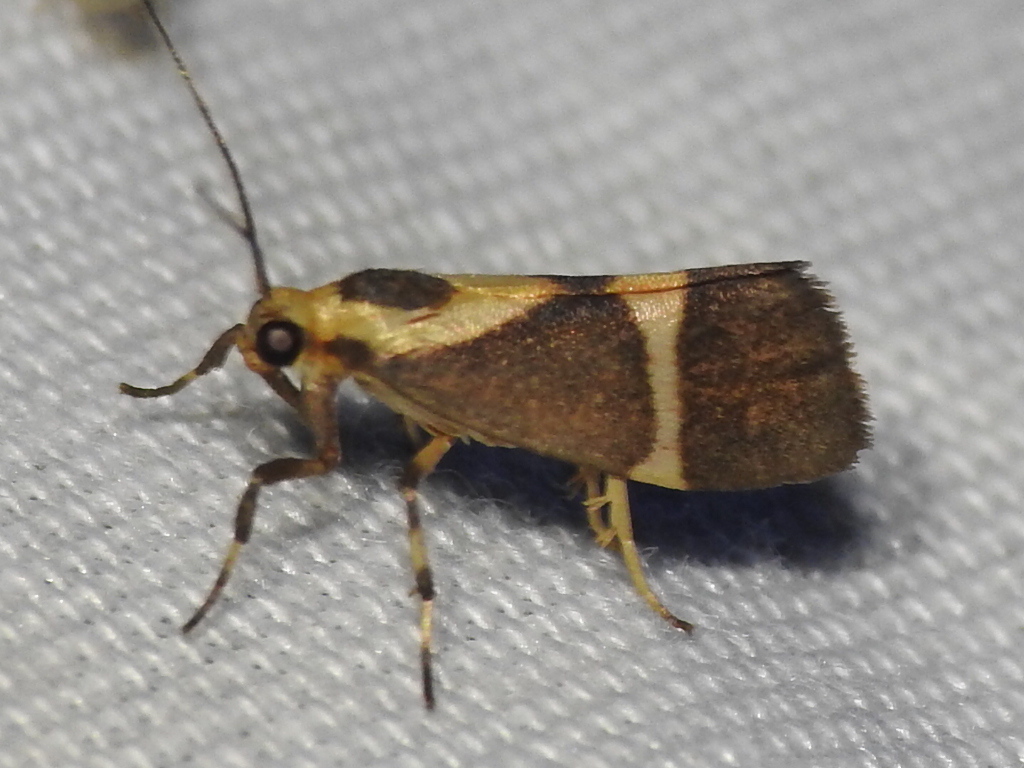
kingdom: Animalia
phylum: Arthropoda
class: Insecta
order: Lepidoptera
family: Erebidae
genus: Cisthene
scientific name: Cisthene subrufa
